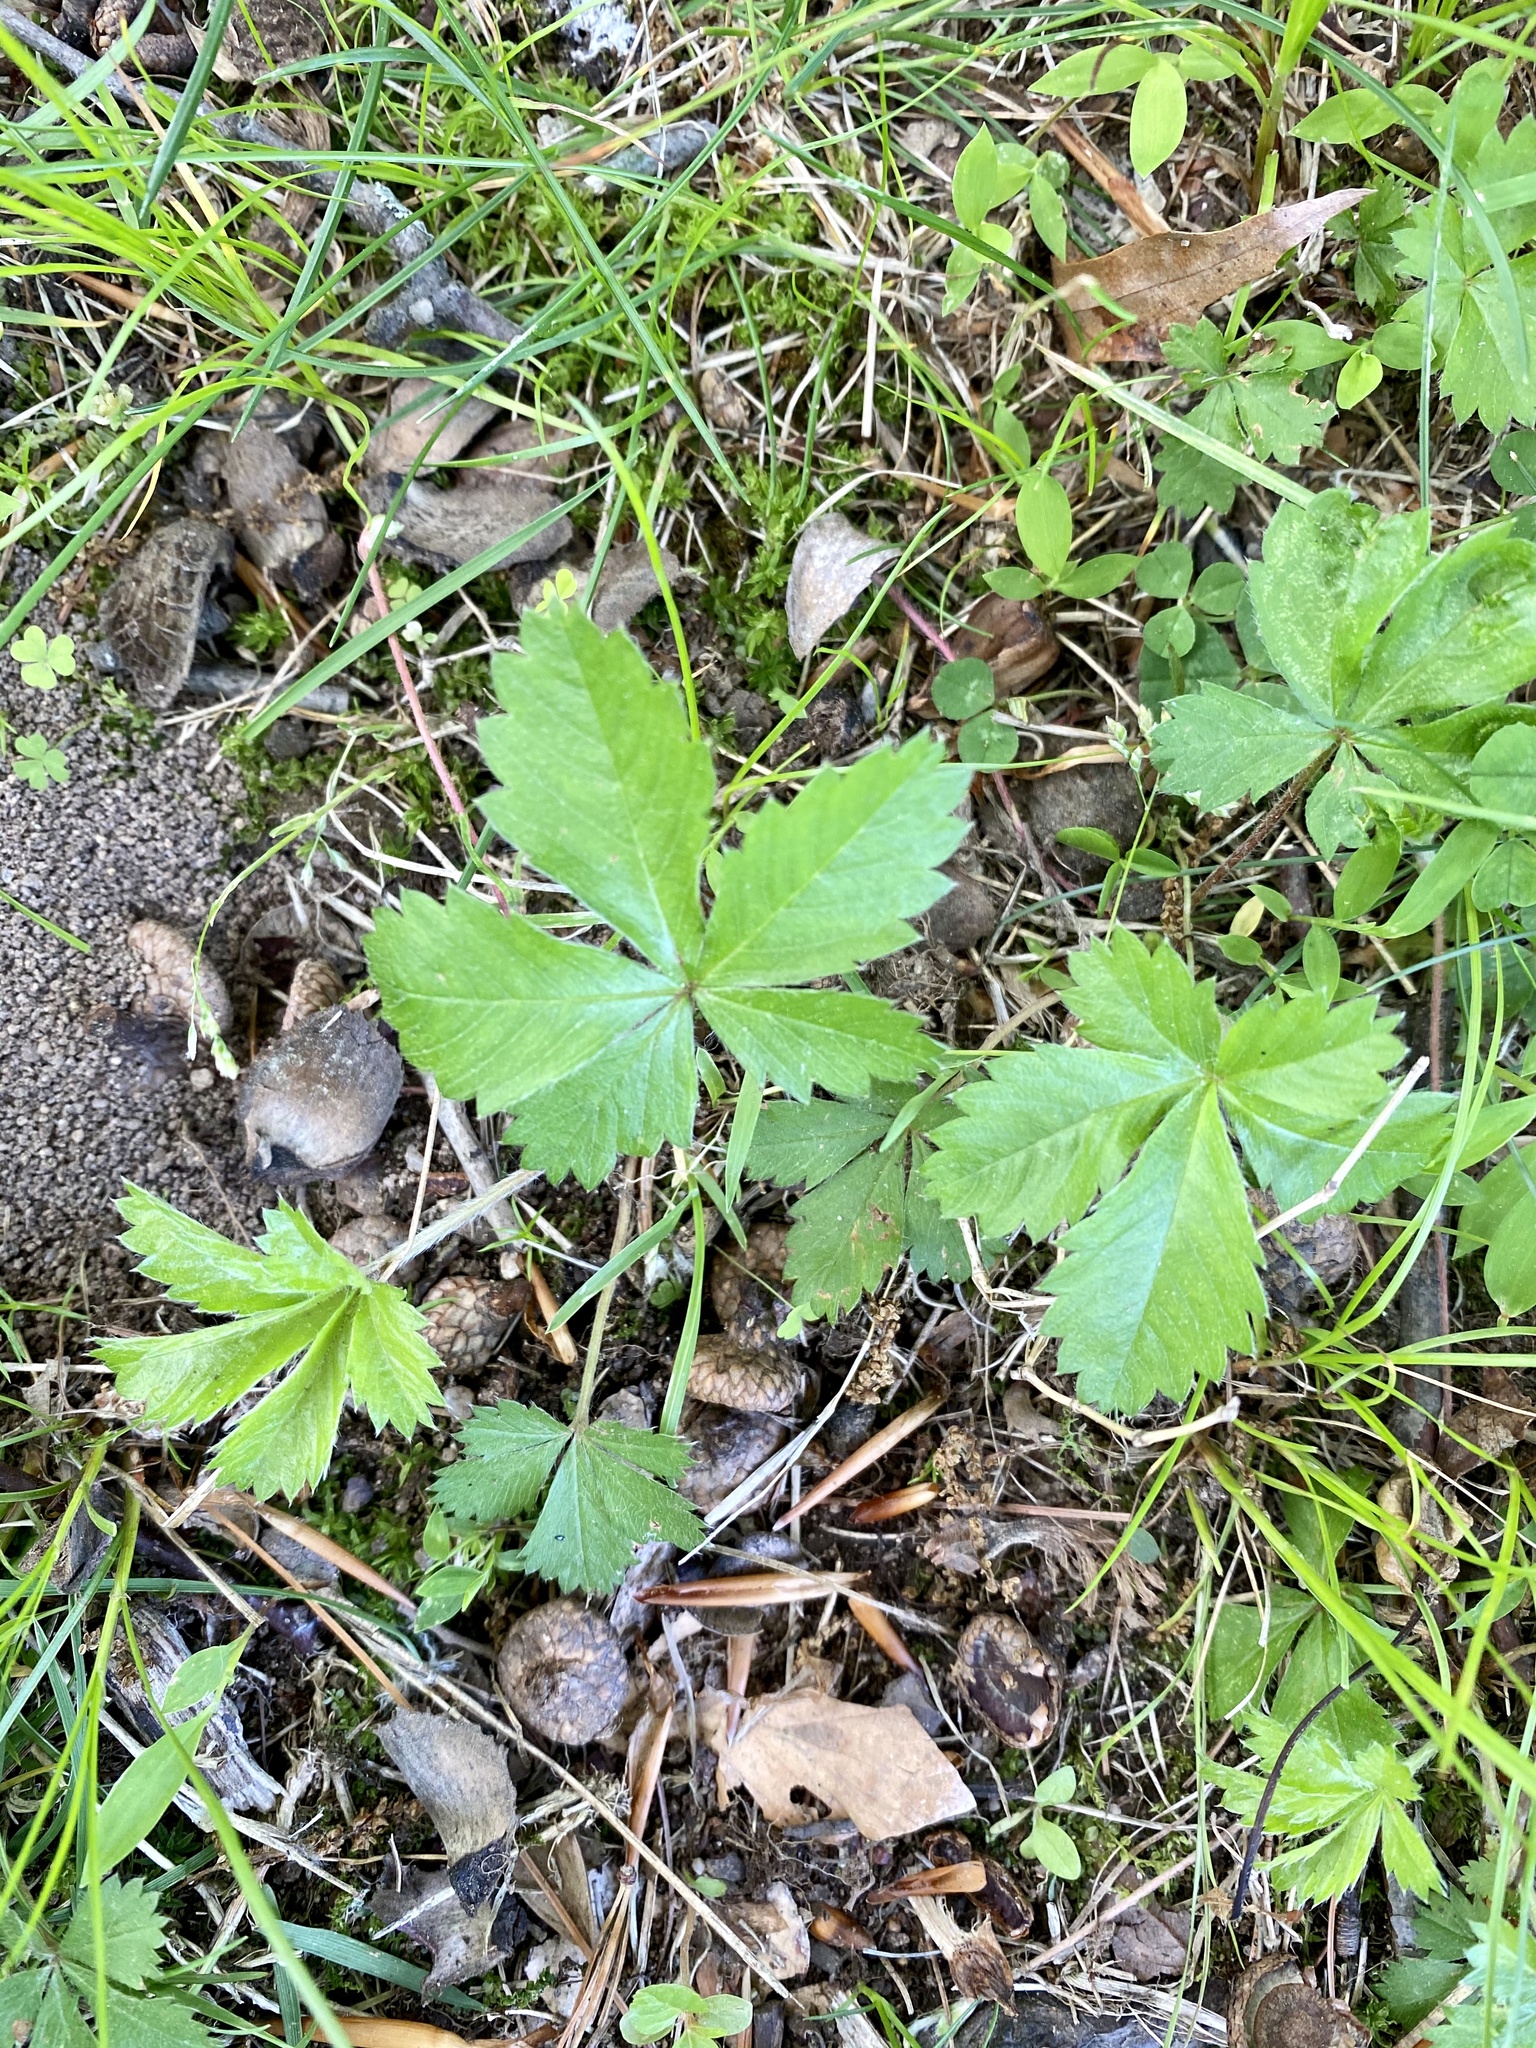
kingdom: Plantae
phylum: Tracheophyta
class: Magnoliopsida
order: Rosales
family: Rosaceae
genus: Potentilla
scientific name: Potentilla canadensis
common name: Canada cinquefoil
